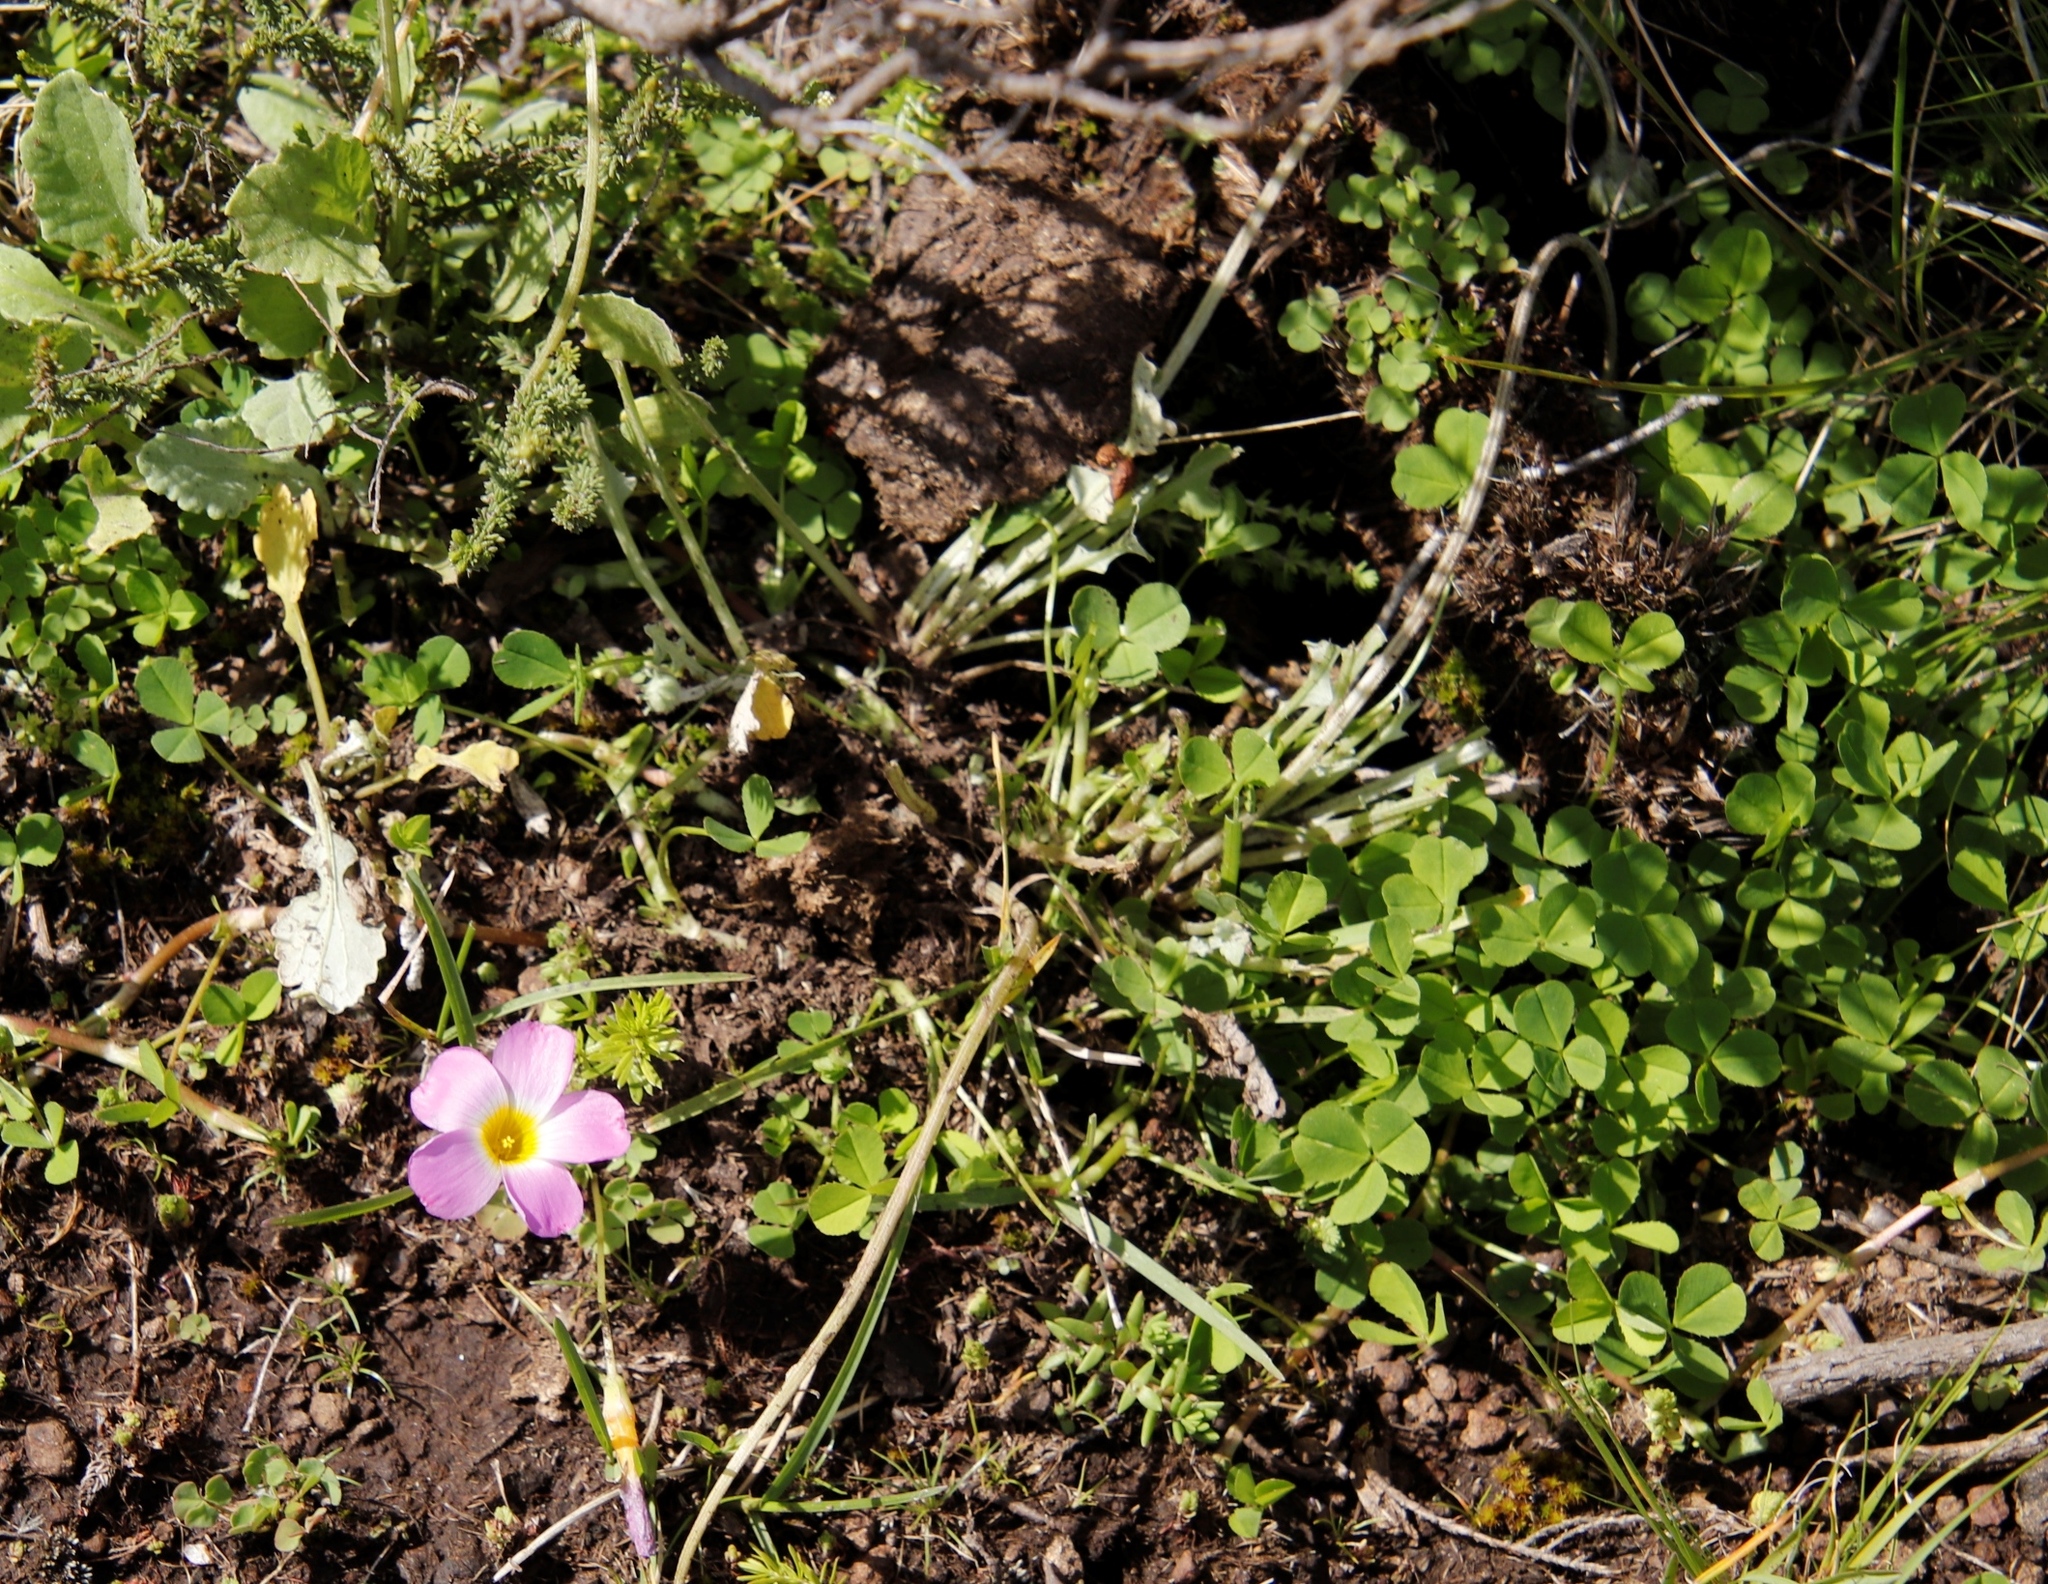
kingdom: Plantae
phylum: Tracheophyta
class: Magnoliopsida
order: Oxalidales
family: Oxalidaceae
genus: Oxalis
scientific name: Oxalis obliquifolia
